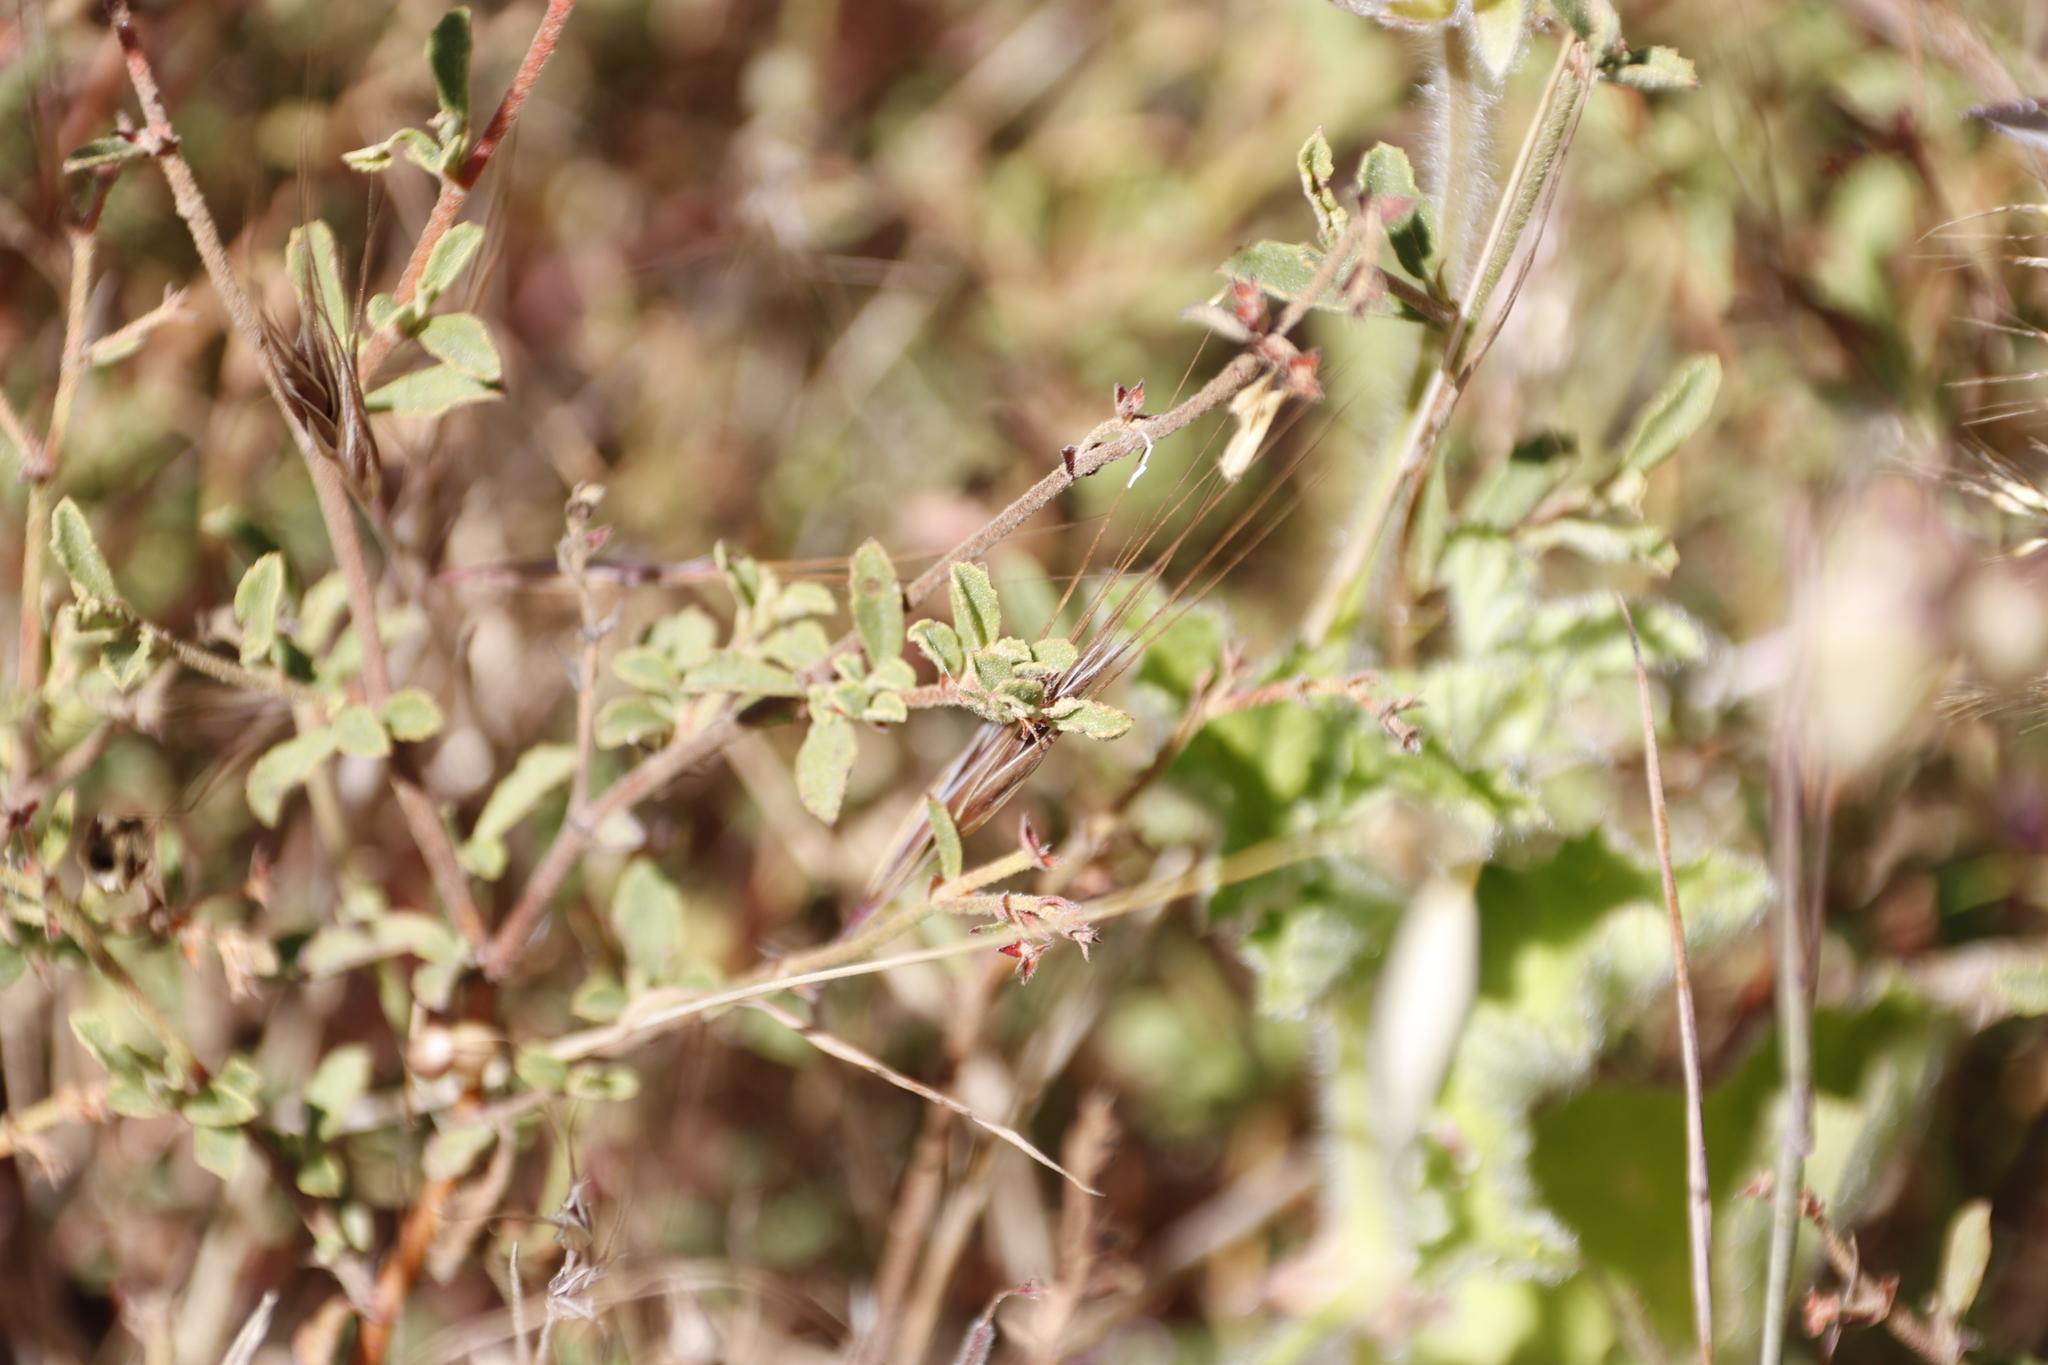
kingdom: Plantae
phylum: Tracheophyta
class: Magnoliopsida
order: Malvales
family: Malvaceae
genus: Hermannia
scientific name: Hermannia multiflora
